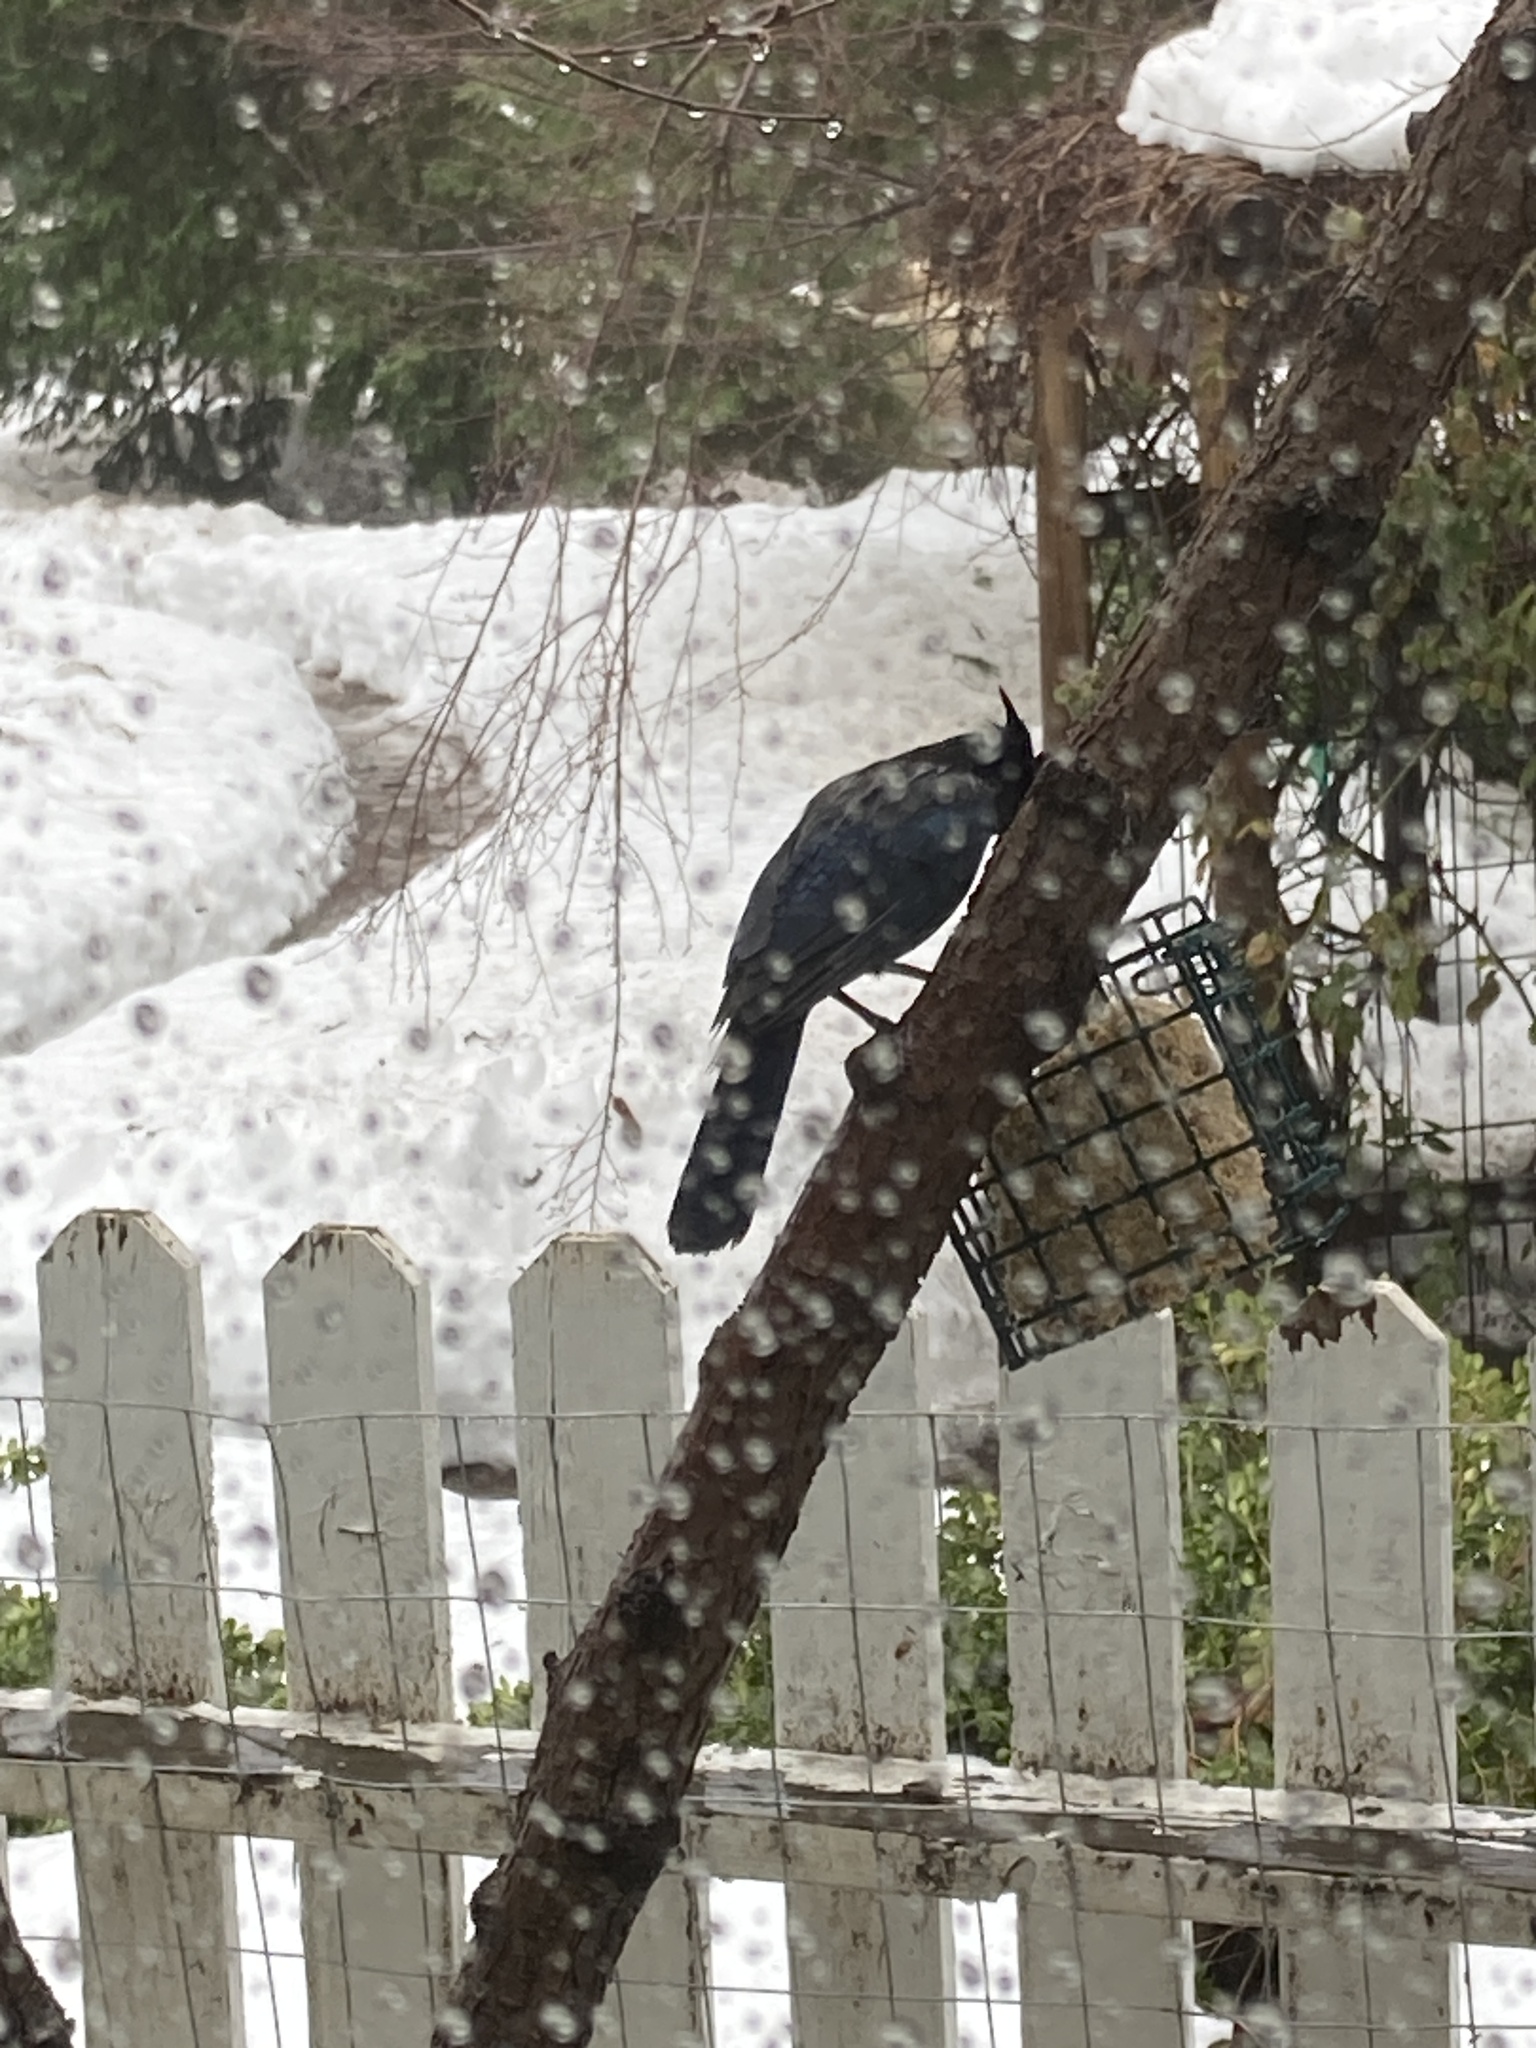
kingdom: Animalia
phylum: Chordata
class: Aves
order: Passeriformes
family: Corvidae
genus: Cyanocitta
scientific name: Cyanocitta stelleri
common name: Steller's jay
